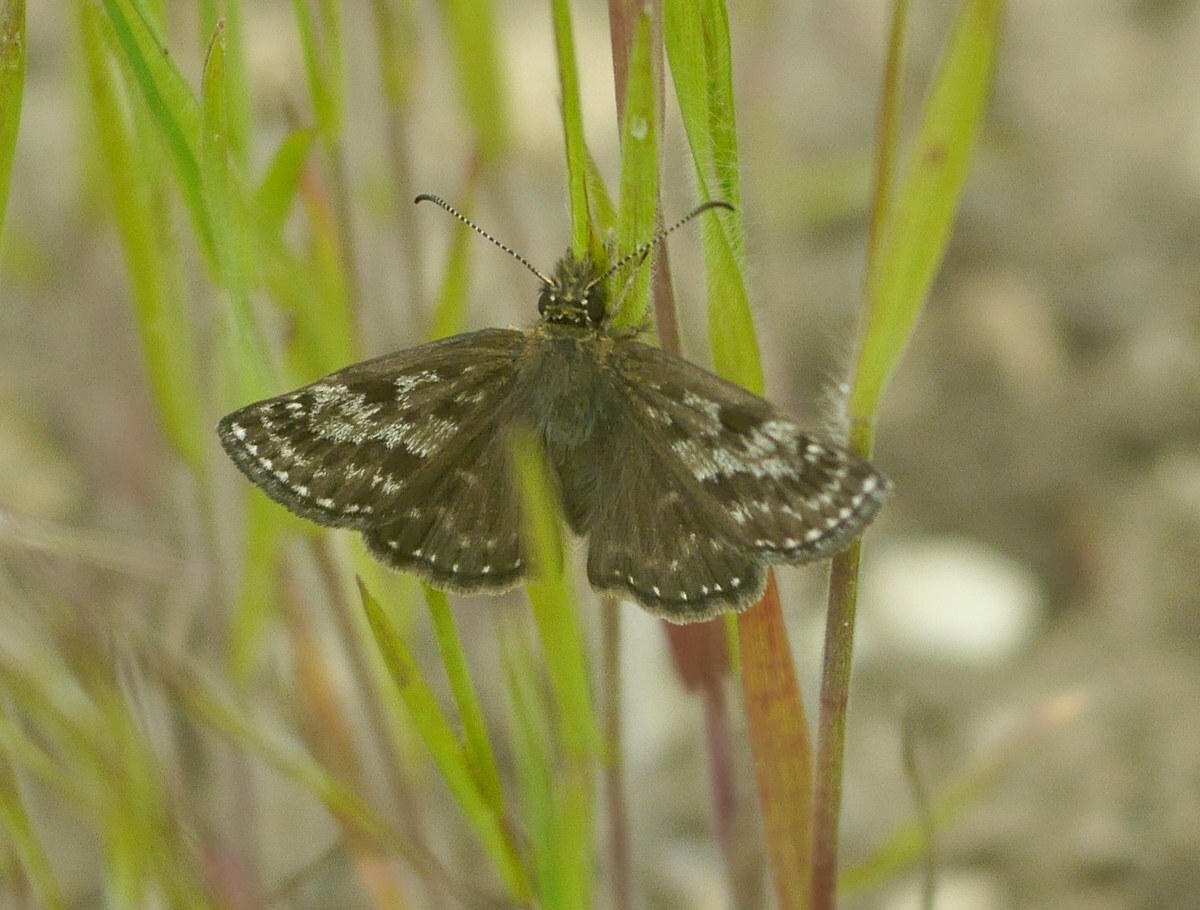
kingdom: Animalia
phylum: Arthropoda
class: Insecta
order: Lepidoptera
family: Hesperiidae
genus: Erynnis
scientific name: Erynnis tages
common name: Dingy skipper
